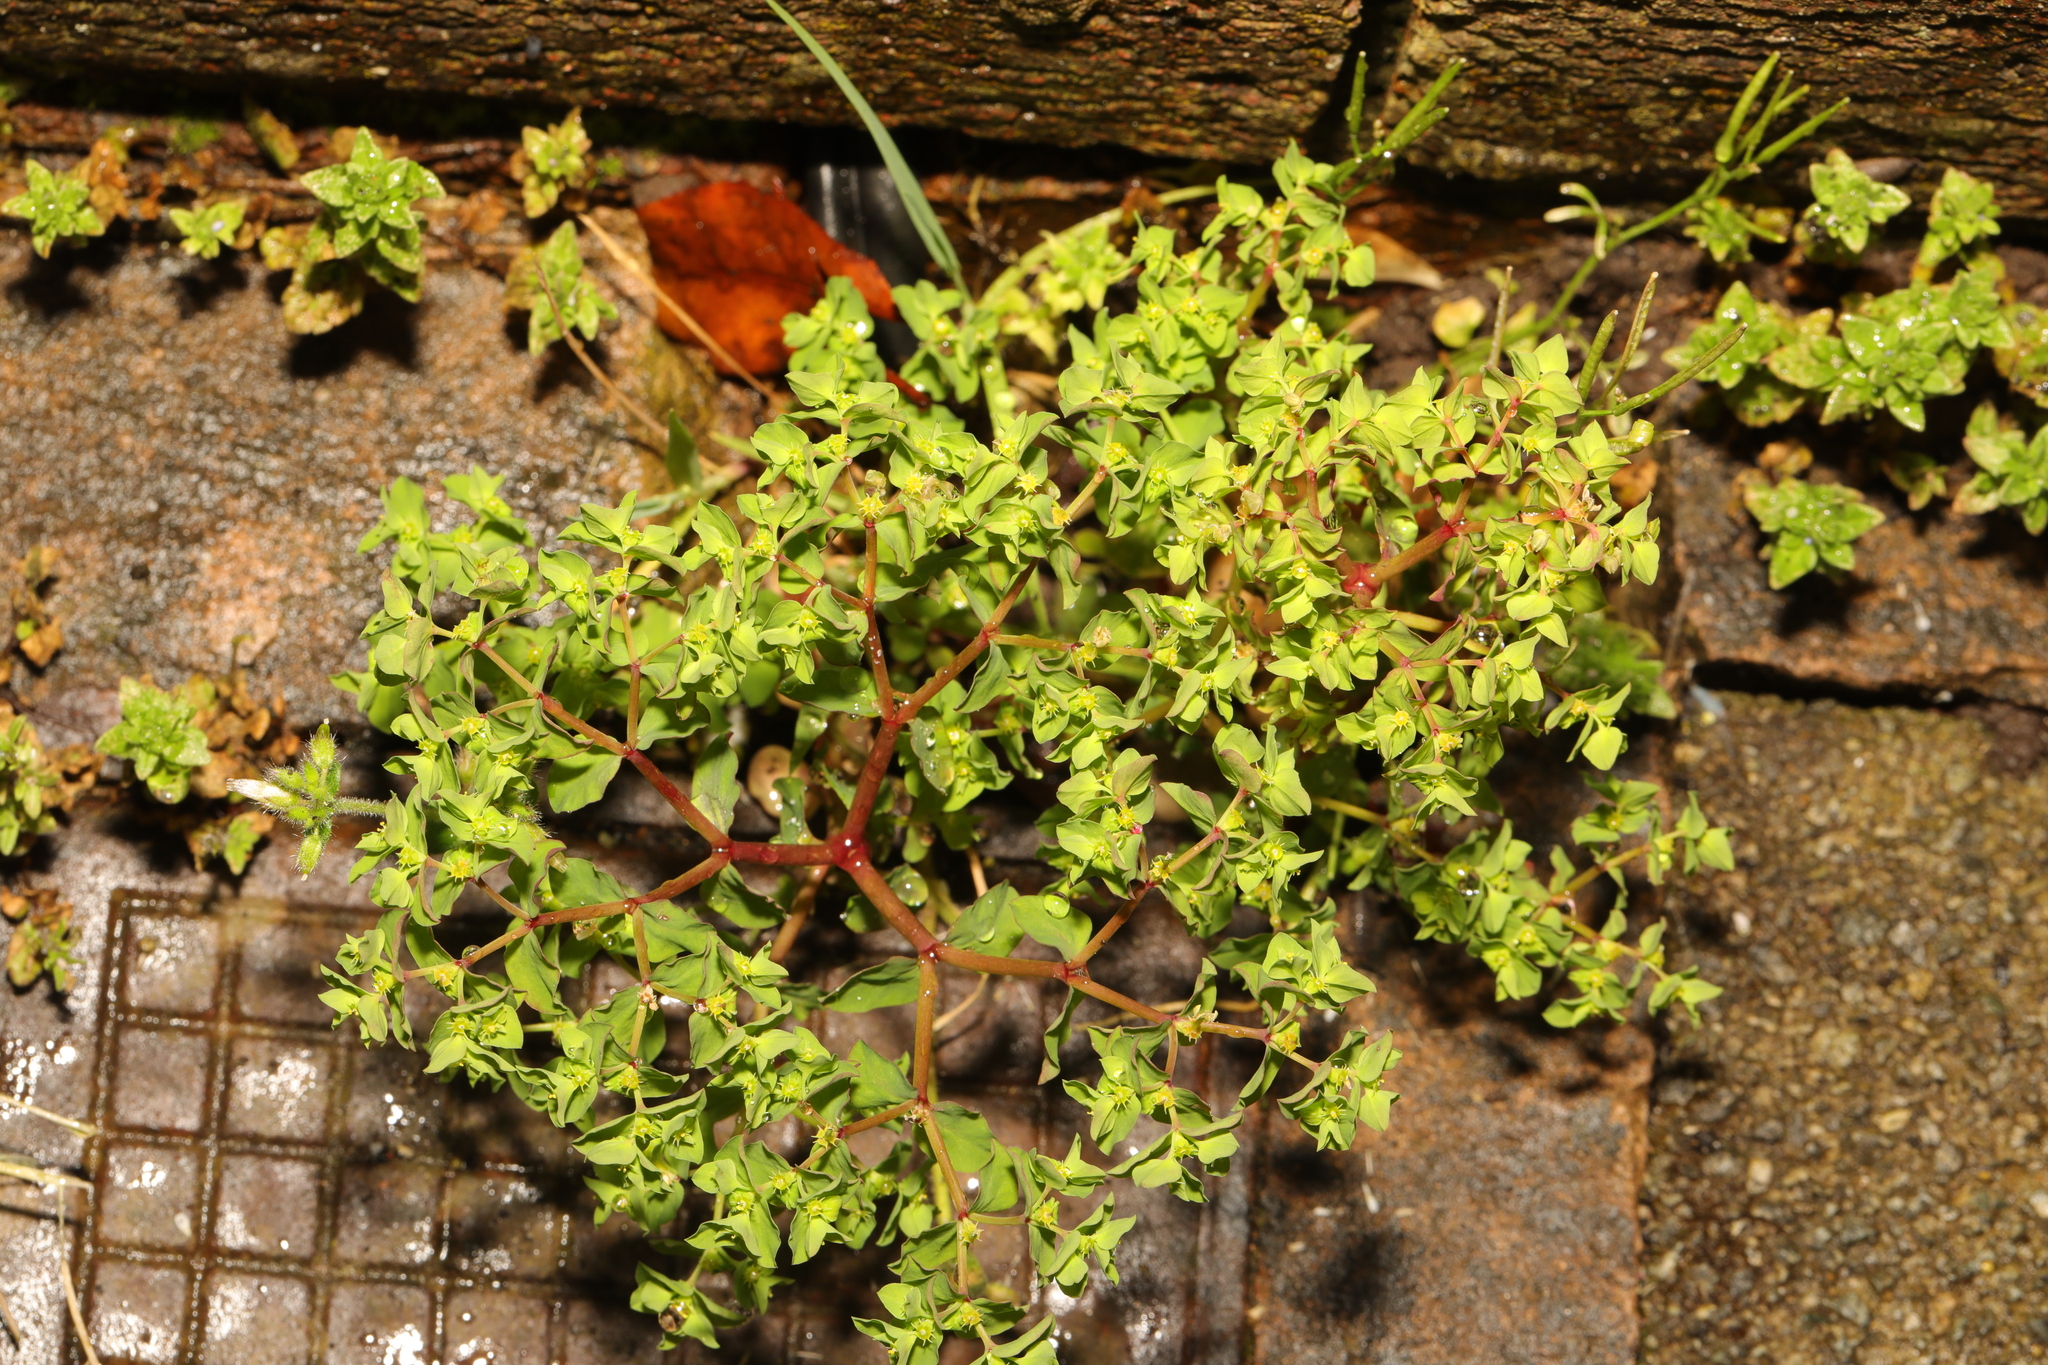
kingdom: Plantae
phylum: Tracheophyta
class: Magnoliopsida
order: Malpighiales
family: Euphorbiaceae
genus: Euphorbia
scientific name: Euphorbia peplus
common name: Petty spurge
